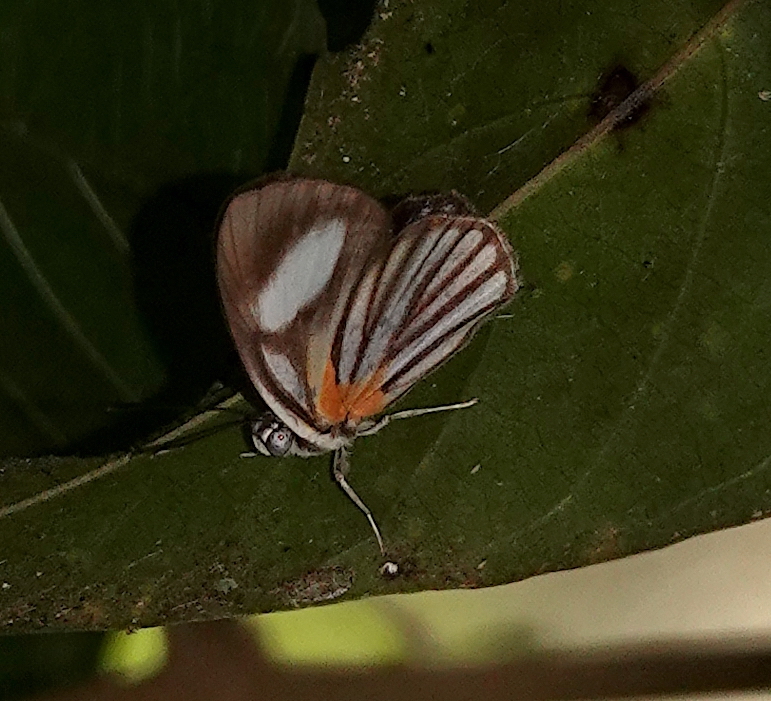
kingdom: Animalia
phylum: Arthropoda
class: Insecta
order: Lepidoptera
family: Riodinidae
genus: Orimba
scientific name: Orimba disparilis
